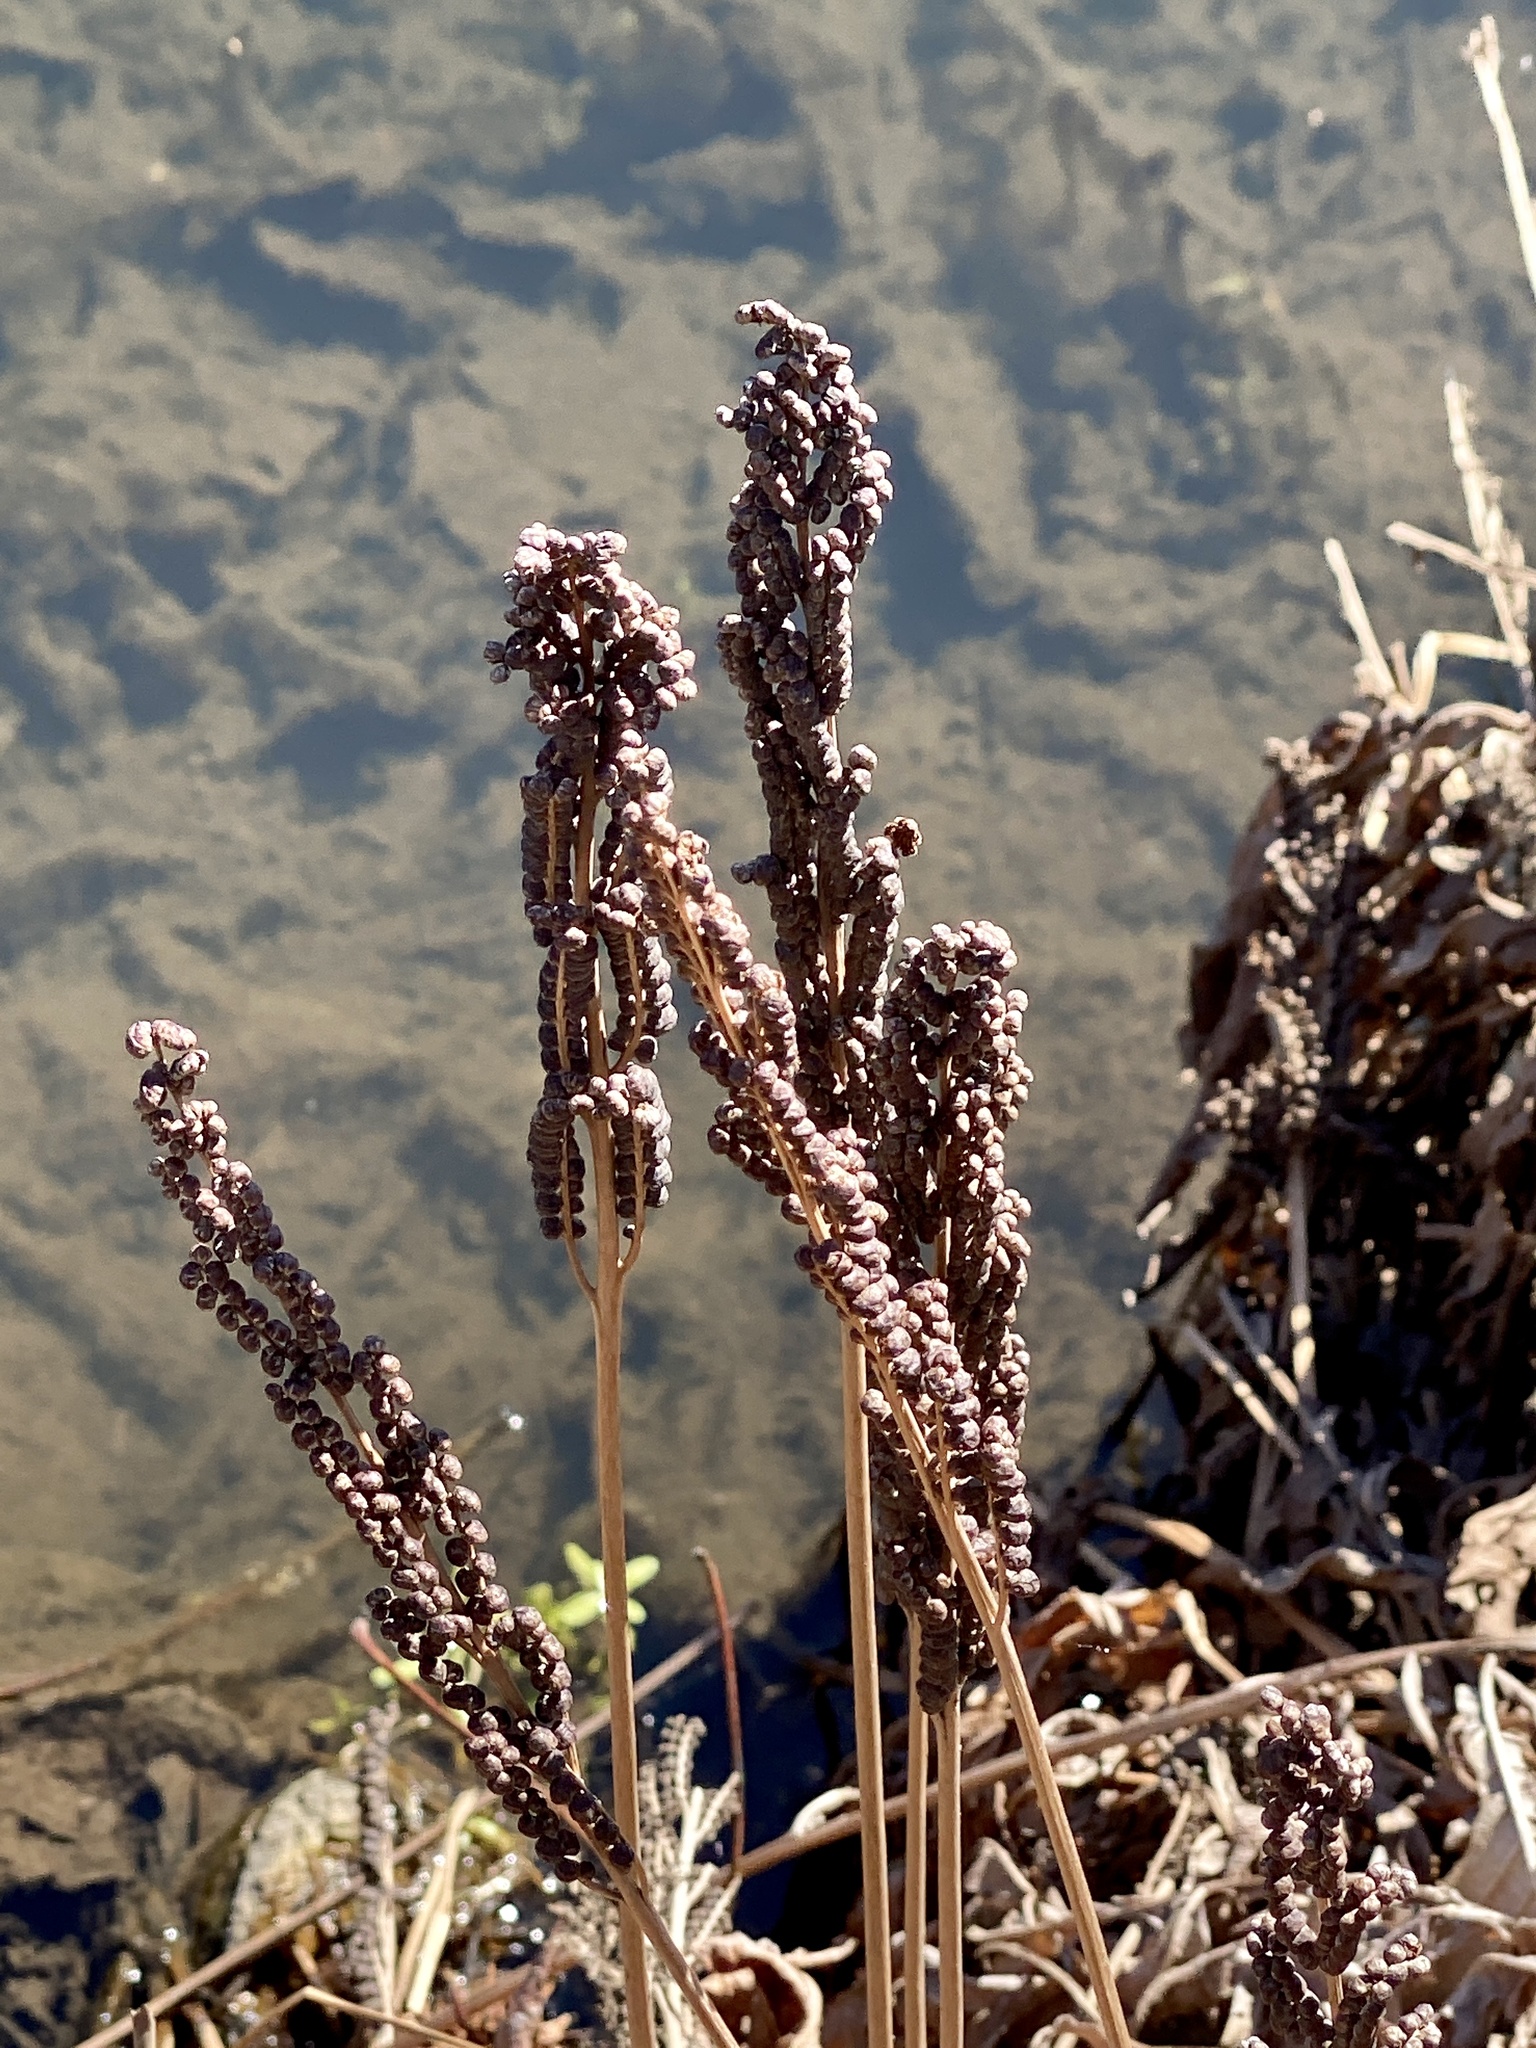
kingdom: Plantae
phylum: Tracheophyta
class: Polypodiopsida
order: Polypodiales
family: Onocleaceae
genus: Onoclea
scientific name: Onoclea sensibilis
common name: Sensitive fern
